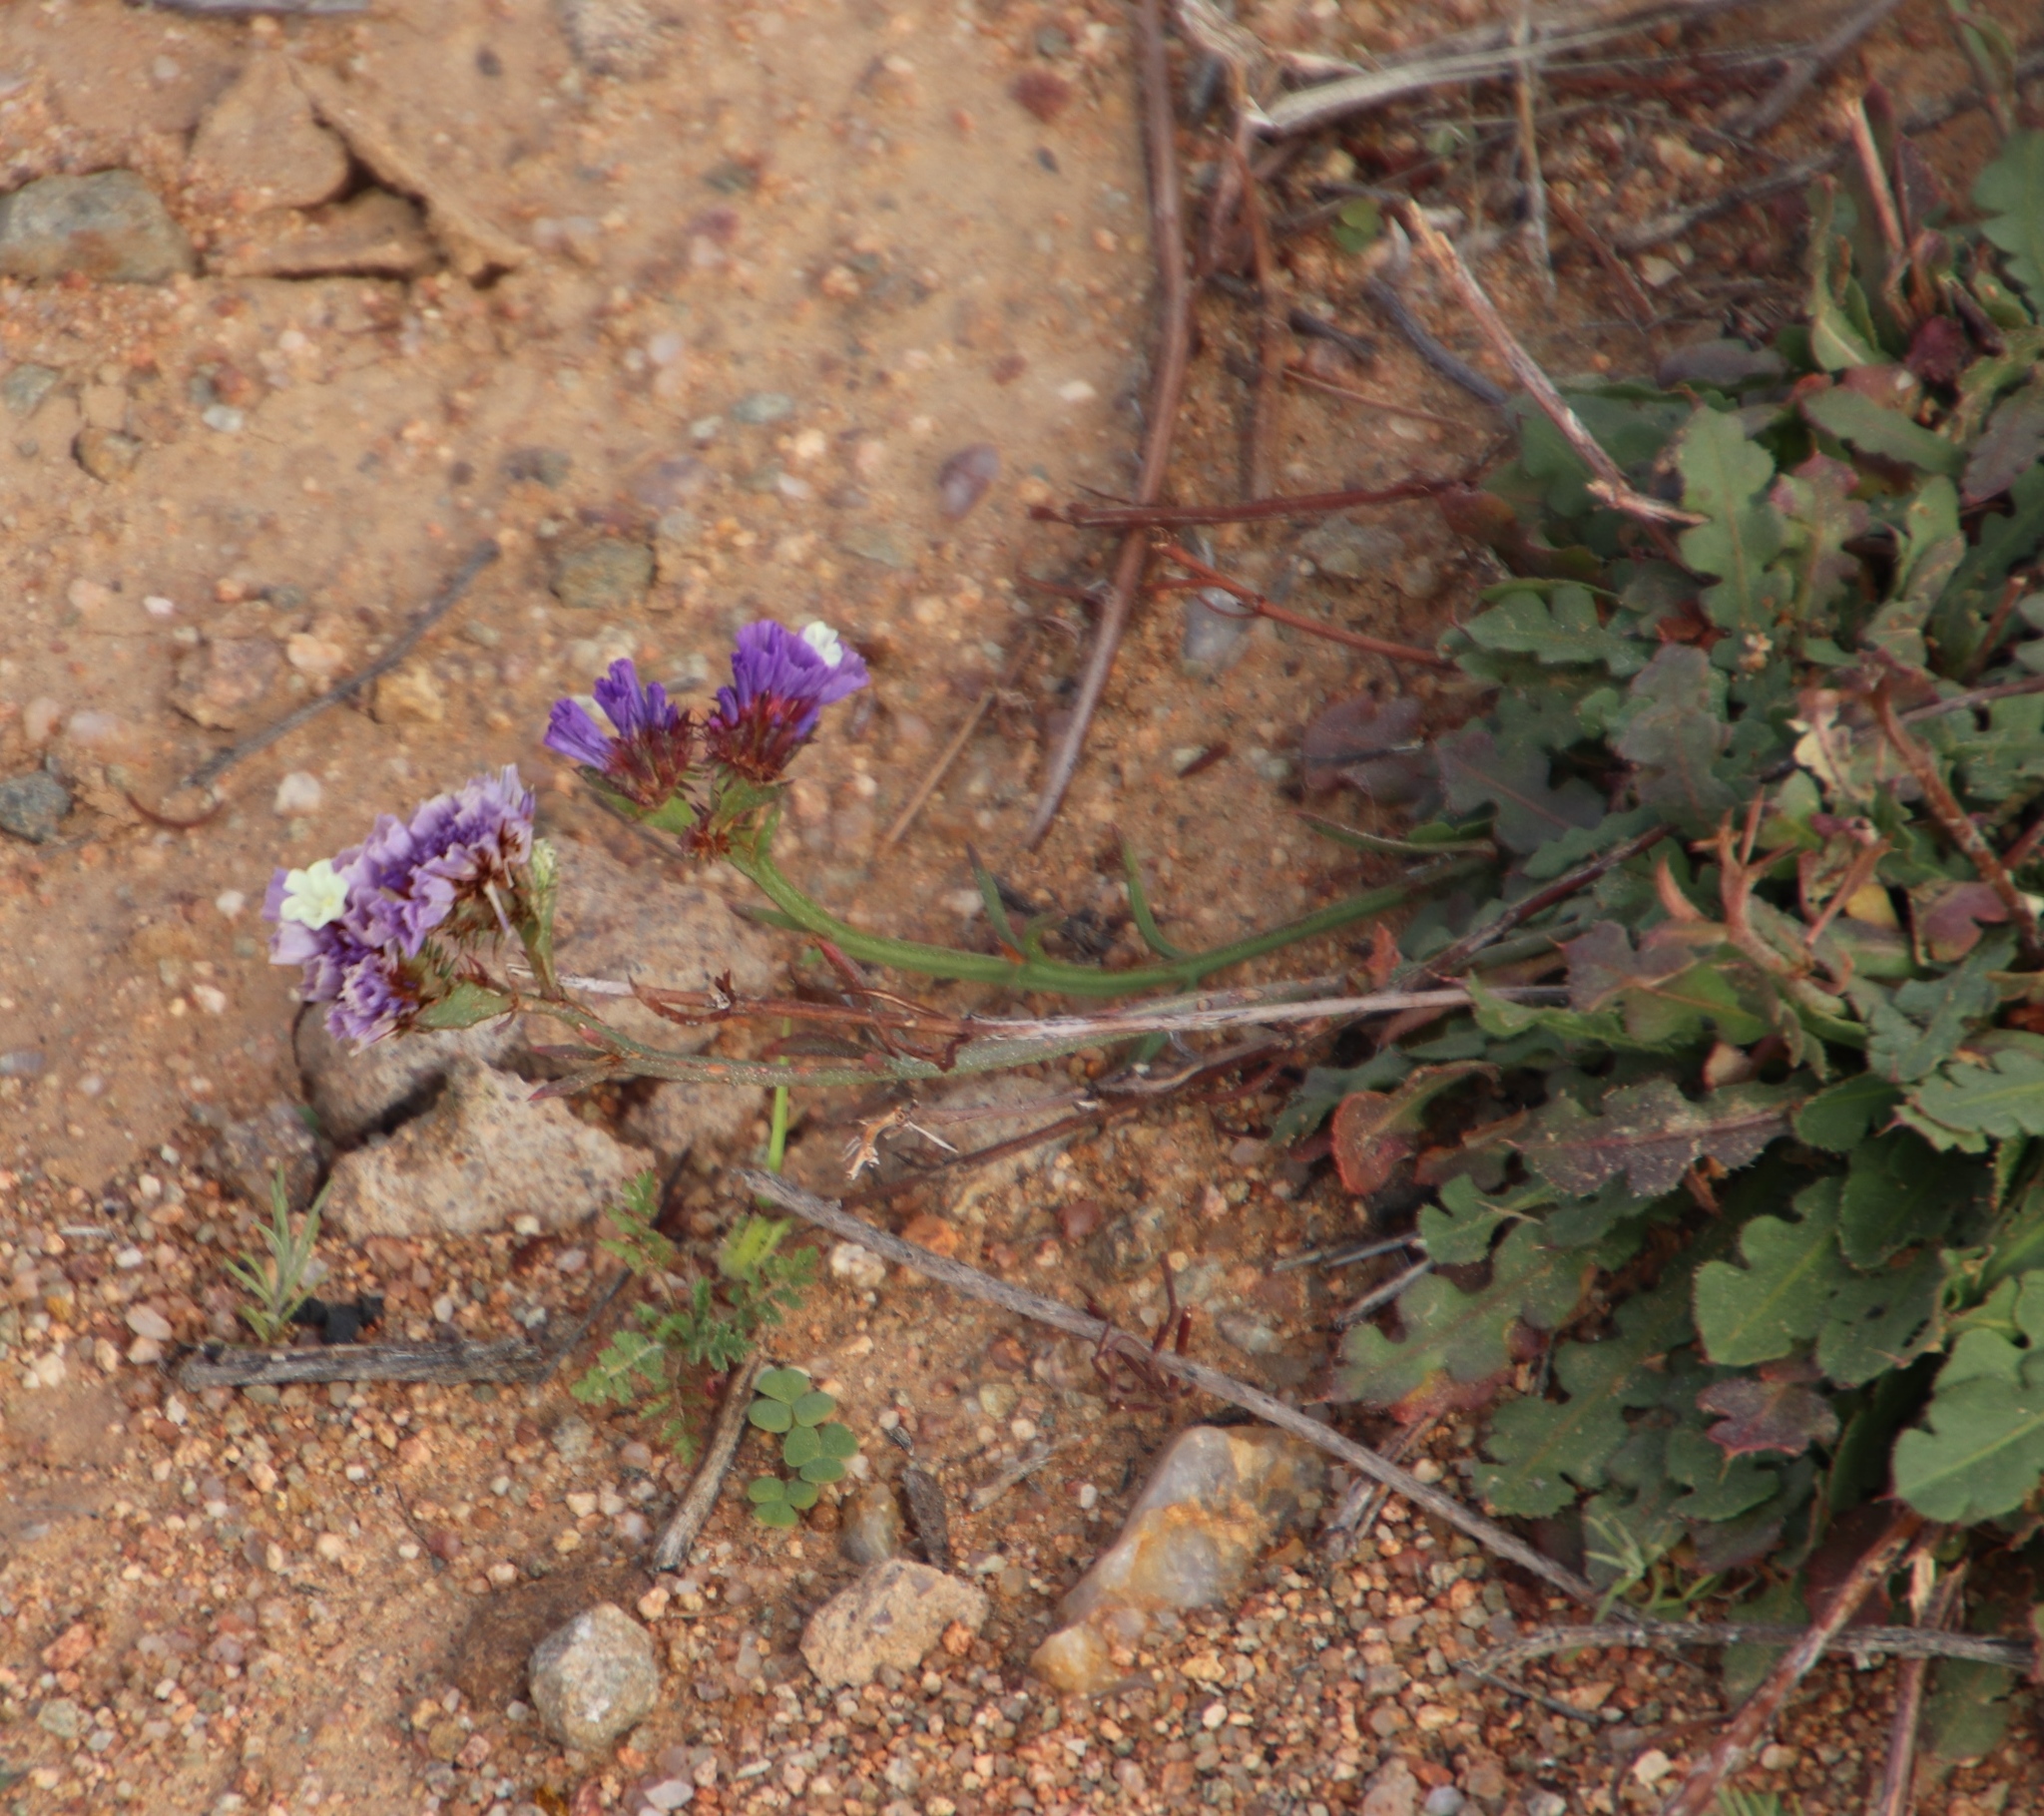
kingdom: Plantae
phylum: Tracheophyta
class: Magnoliopsida
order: Caryophyllales
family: Plumbaginaceae
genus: Limonium
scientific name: Limonium sinuatum
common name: Statice
